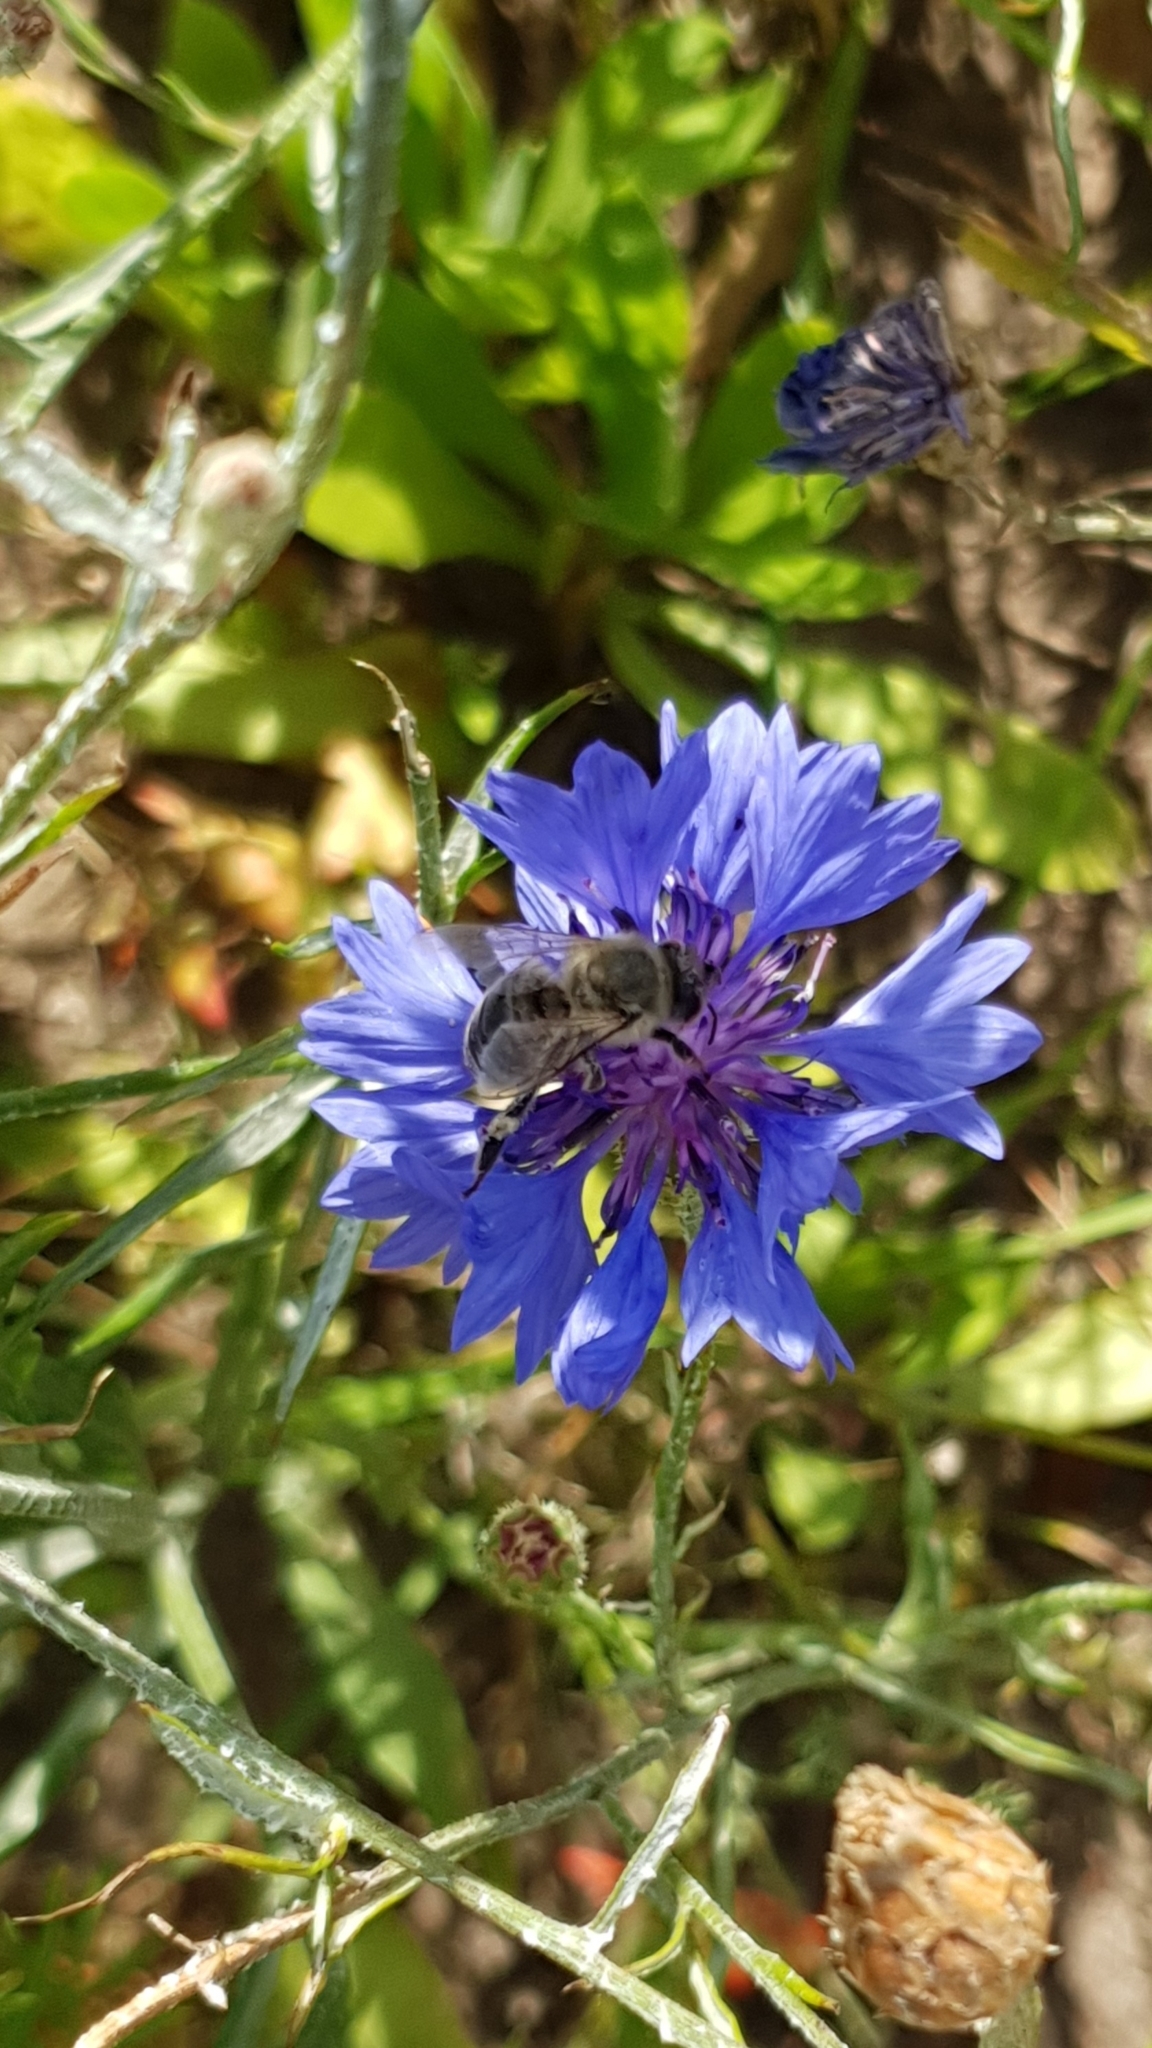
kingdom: Animalia
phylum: Arthropoda
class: Insecta
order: Hymenoptera
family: Apidae
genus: Apis
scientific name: Apis mellifera
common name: Honey bee
